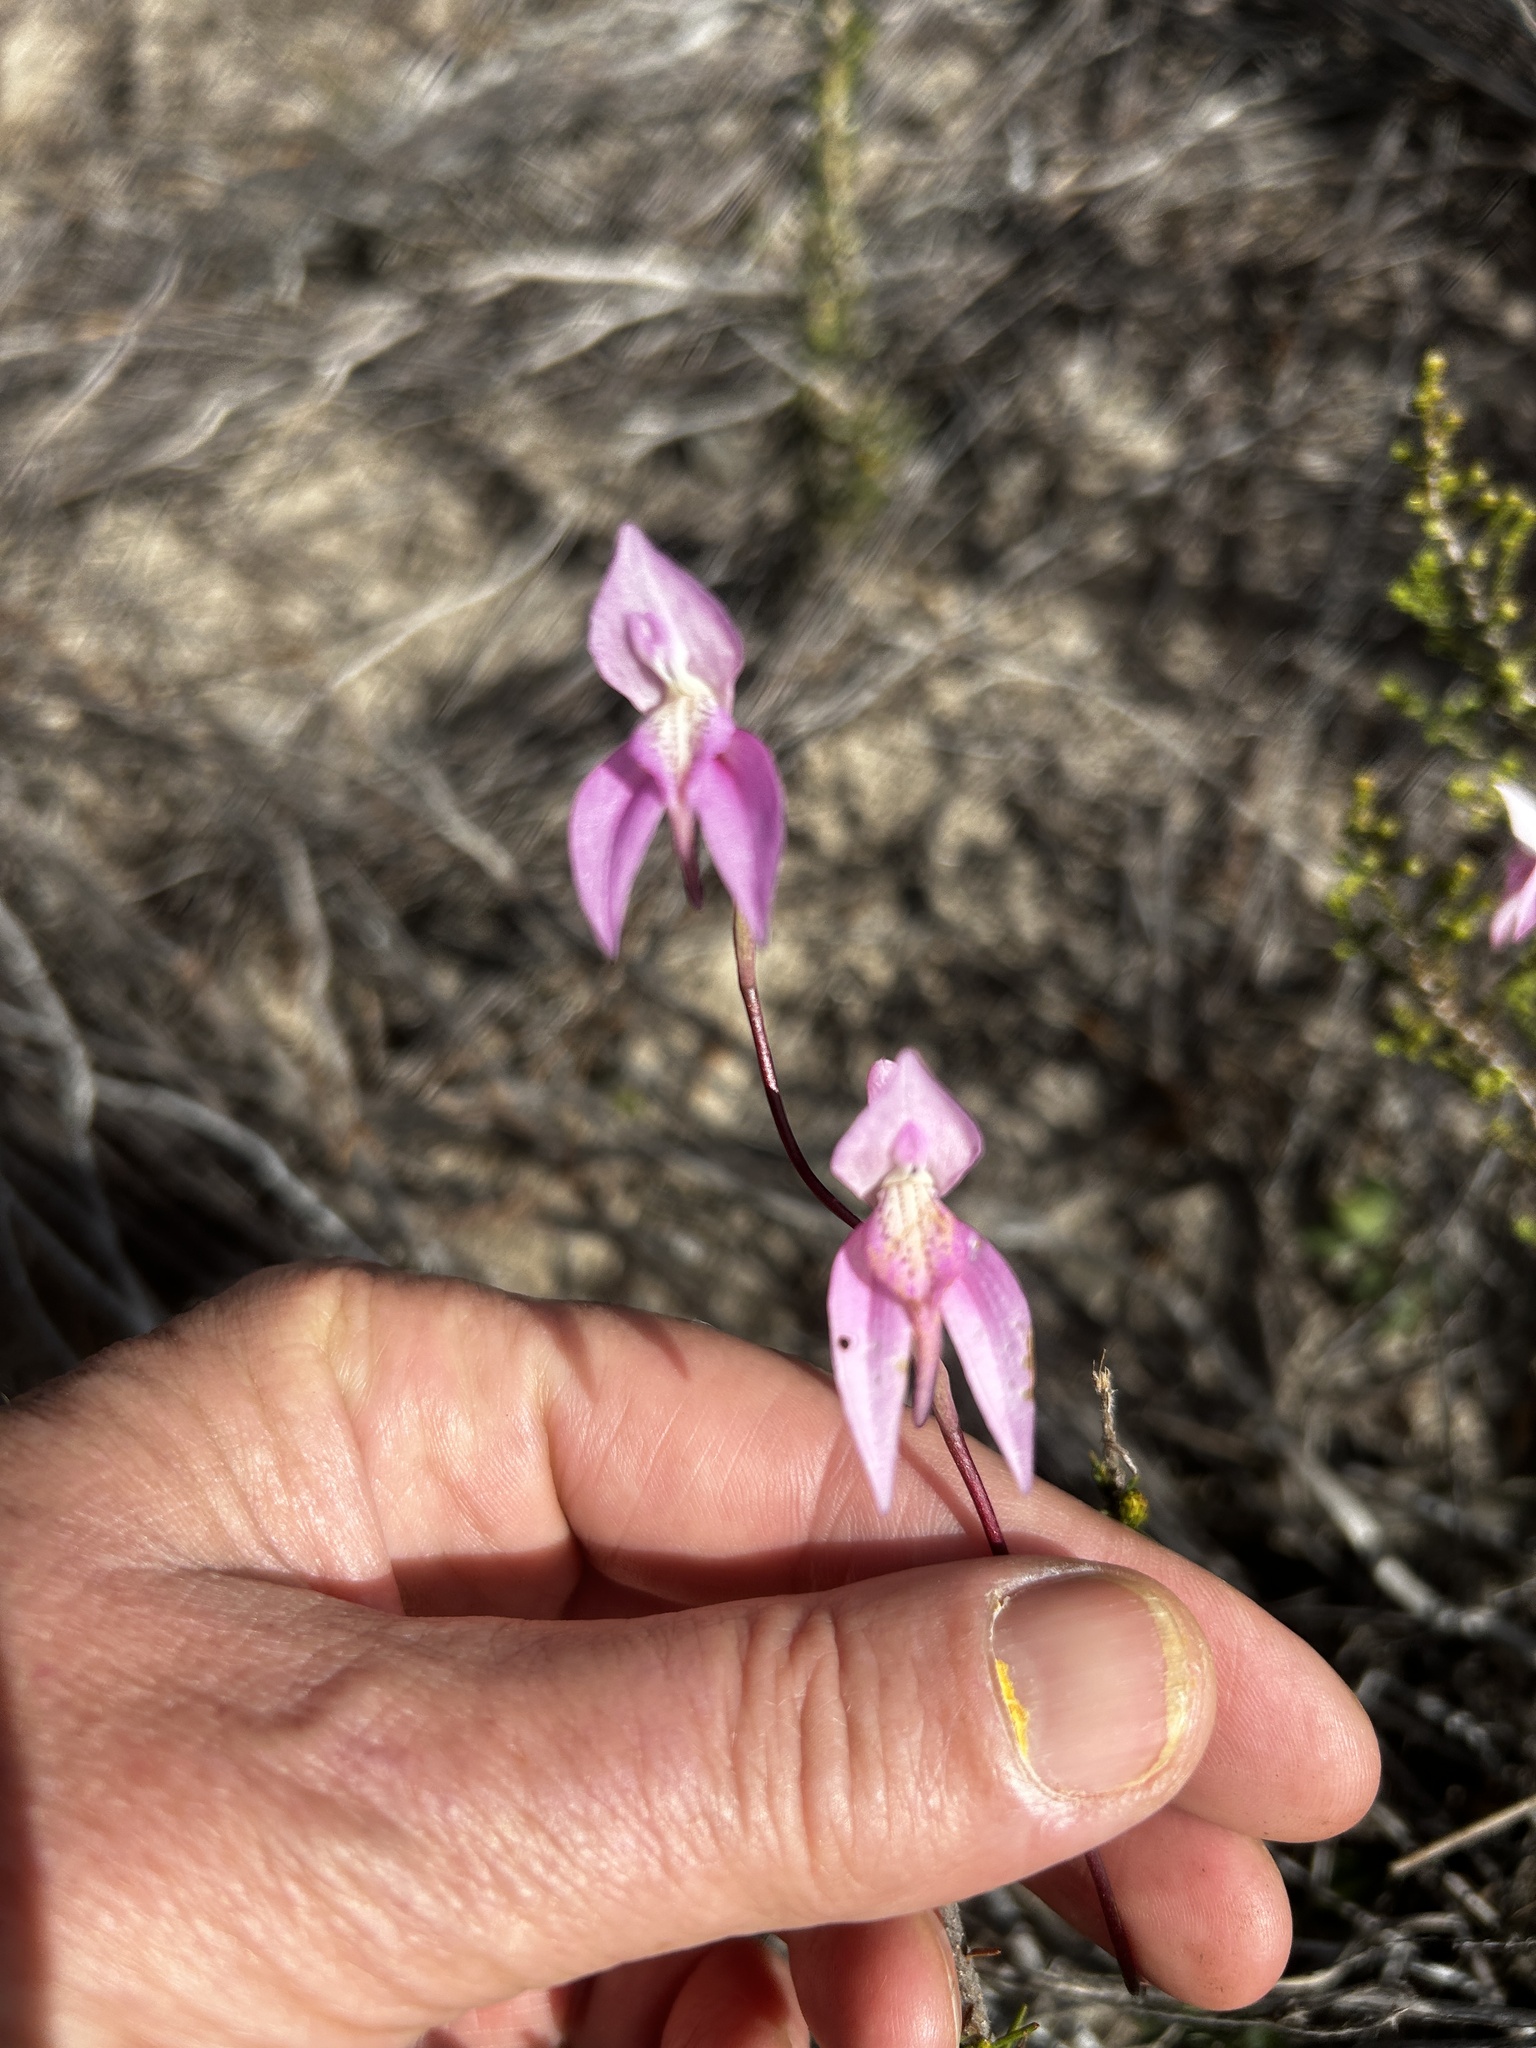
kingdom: Plantae
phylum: Tracheophyta
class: Liliopsida
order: Asparagales
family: Orchidaceae
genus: Disa
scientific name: Disa bifida
